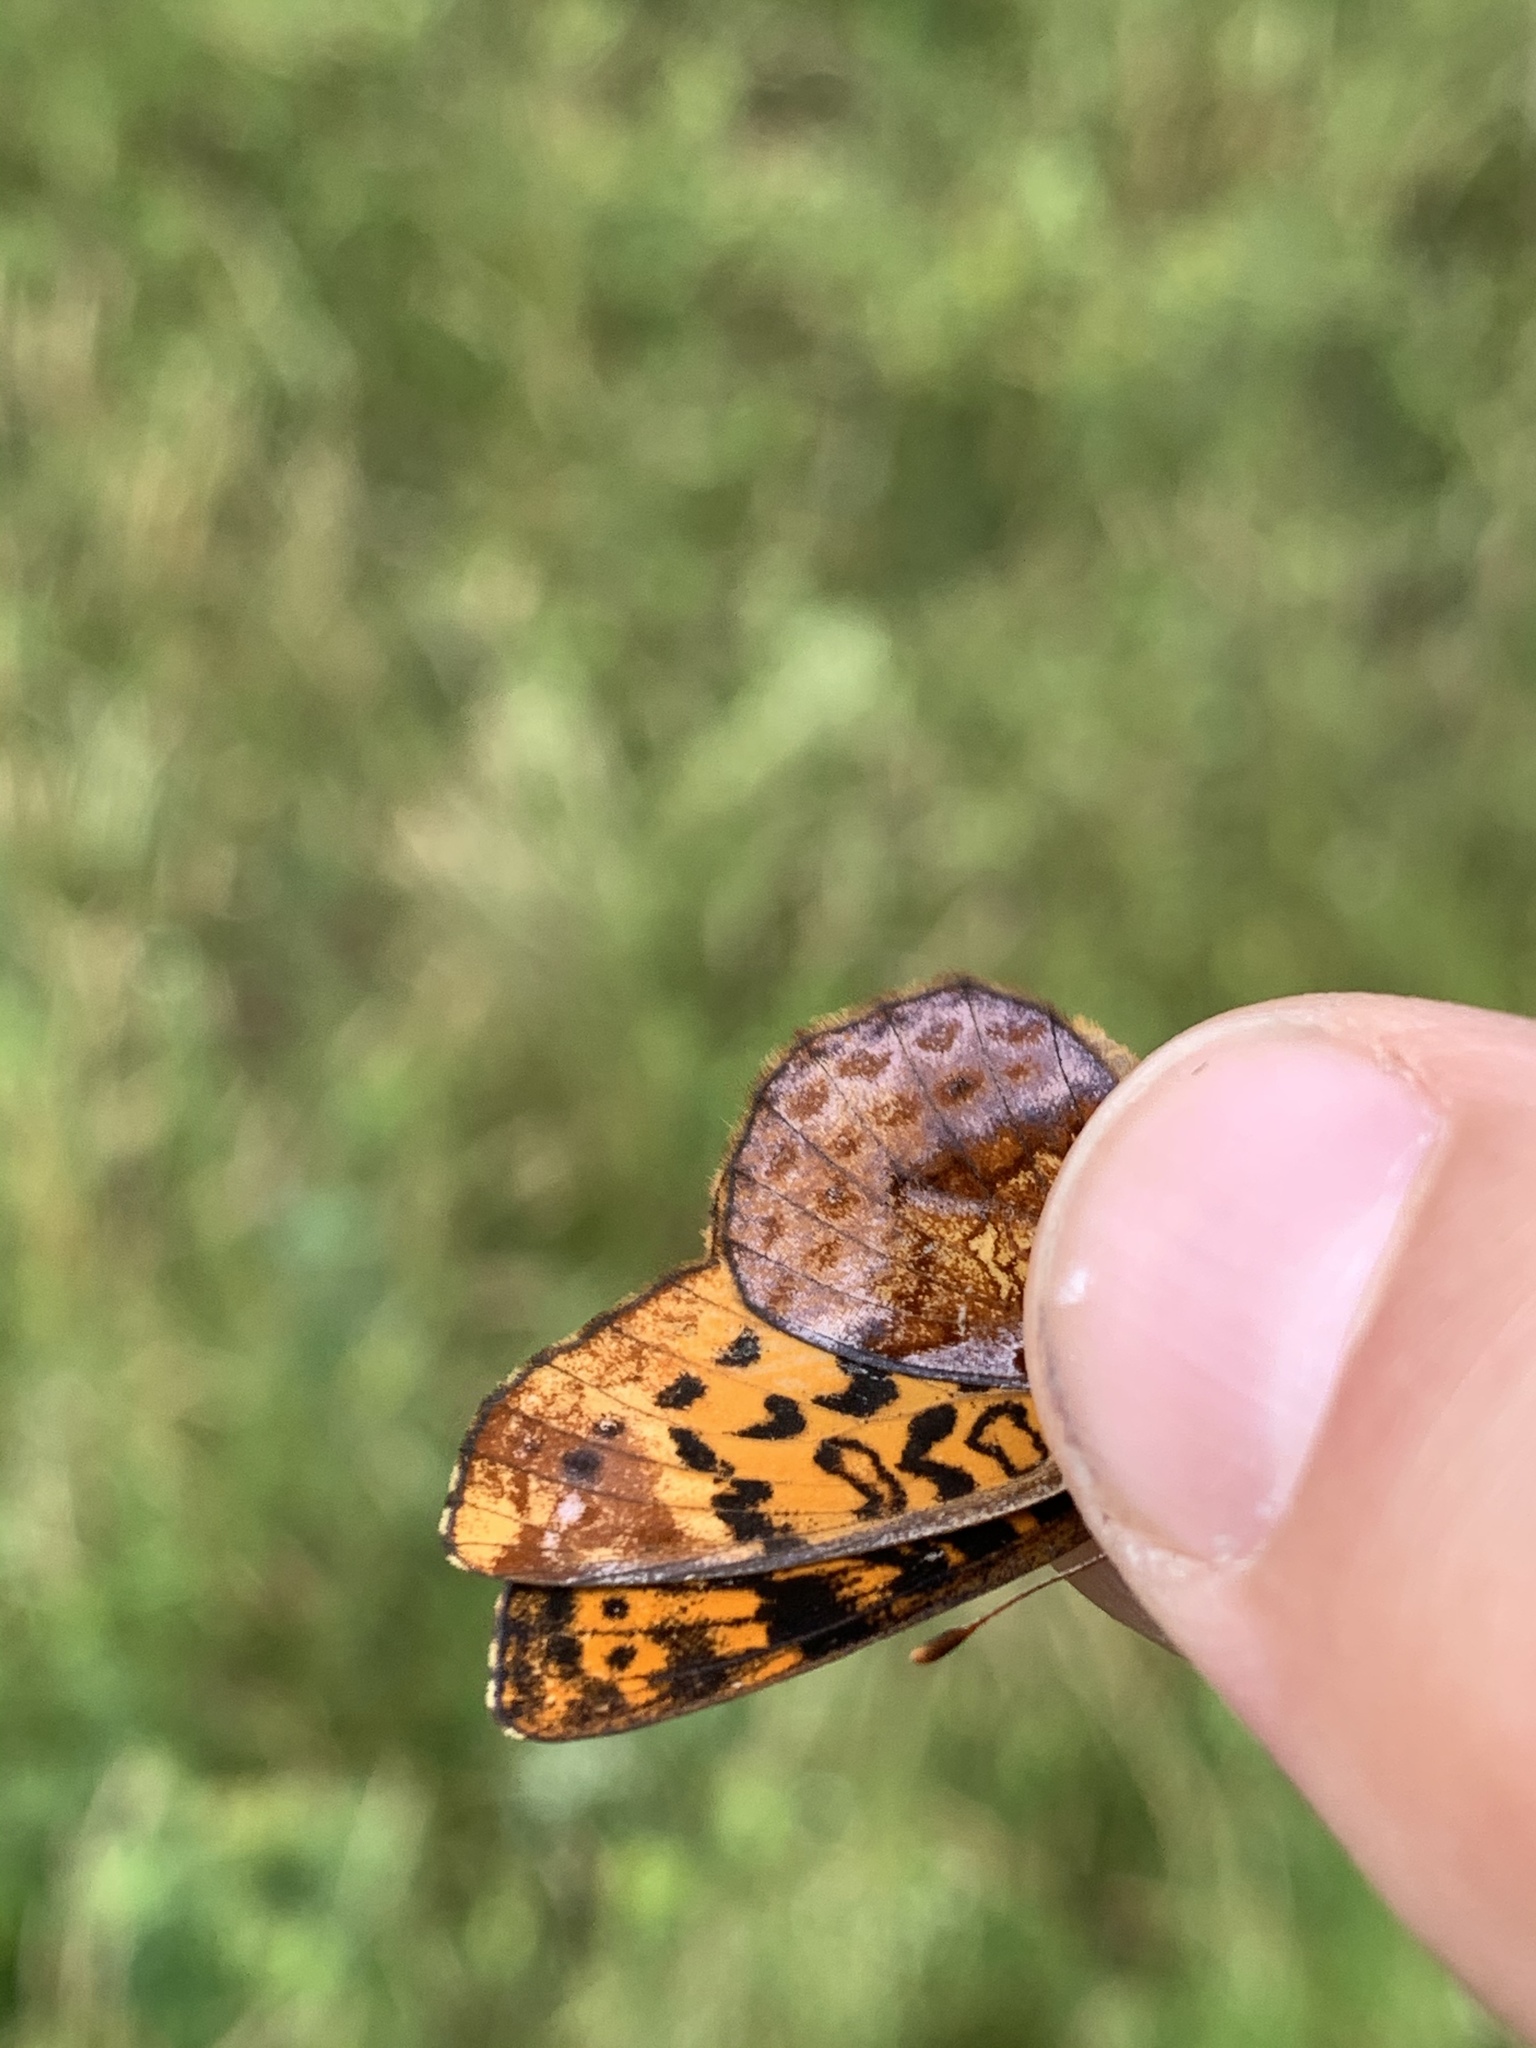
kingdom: Animalia
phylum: Arthropoda
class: Insecta
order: Lepidoptera
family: Nymphalidae
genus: Clossiana
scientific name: Clossiana toddi
